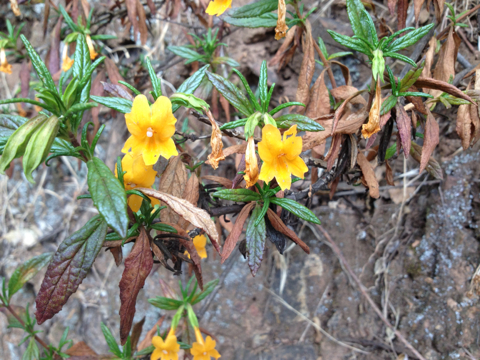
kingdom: Plantae
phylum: Tracheophyta
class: Magnoliopsida
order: Lamiales
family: Phrymaceae
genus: Diplacus
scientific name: Diplacus aurantiacus
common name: Bush monkey-flower
